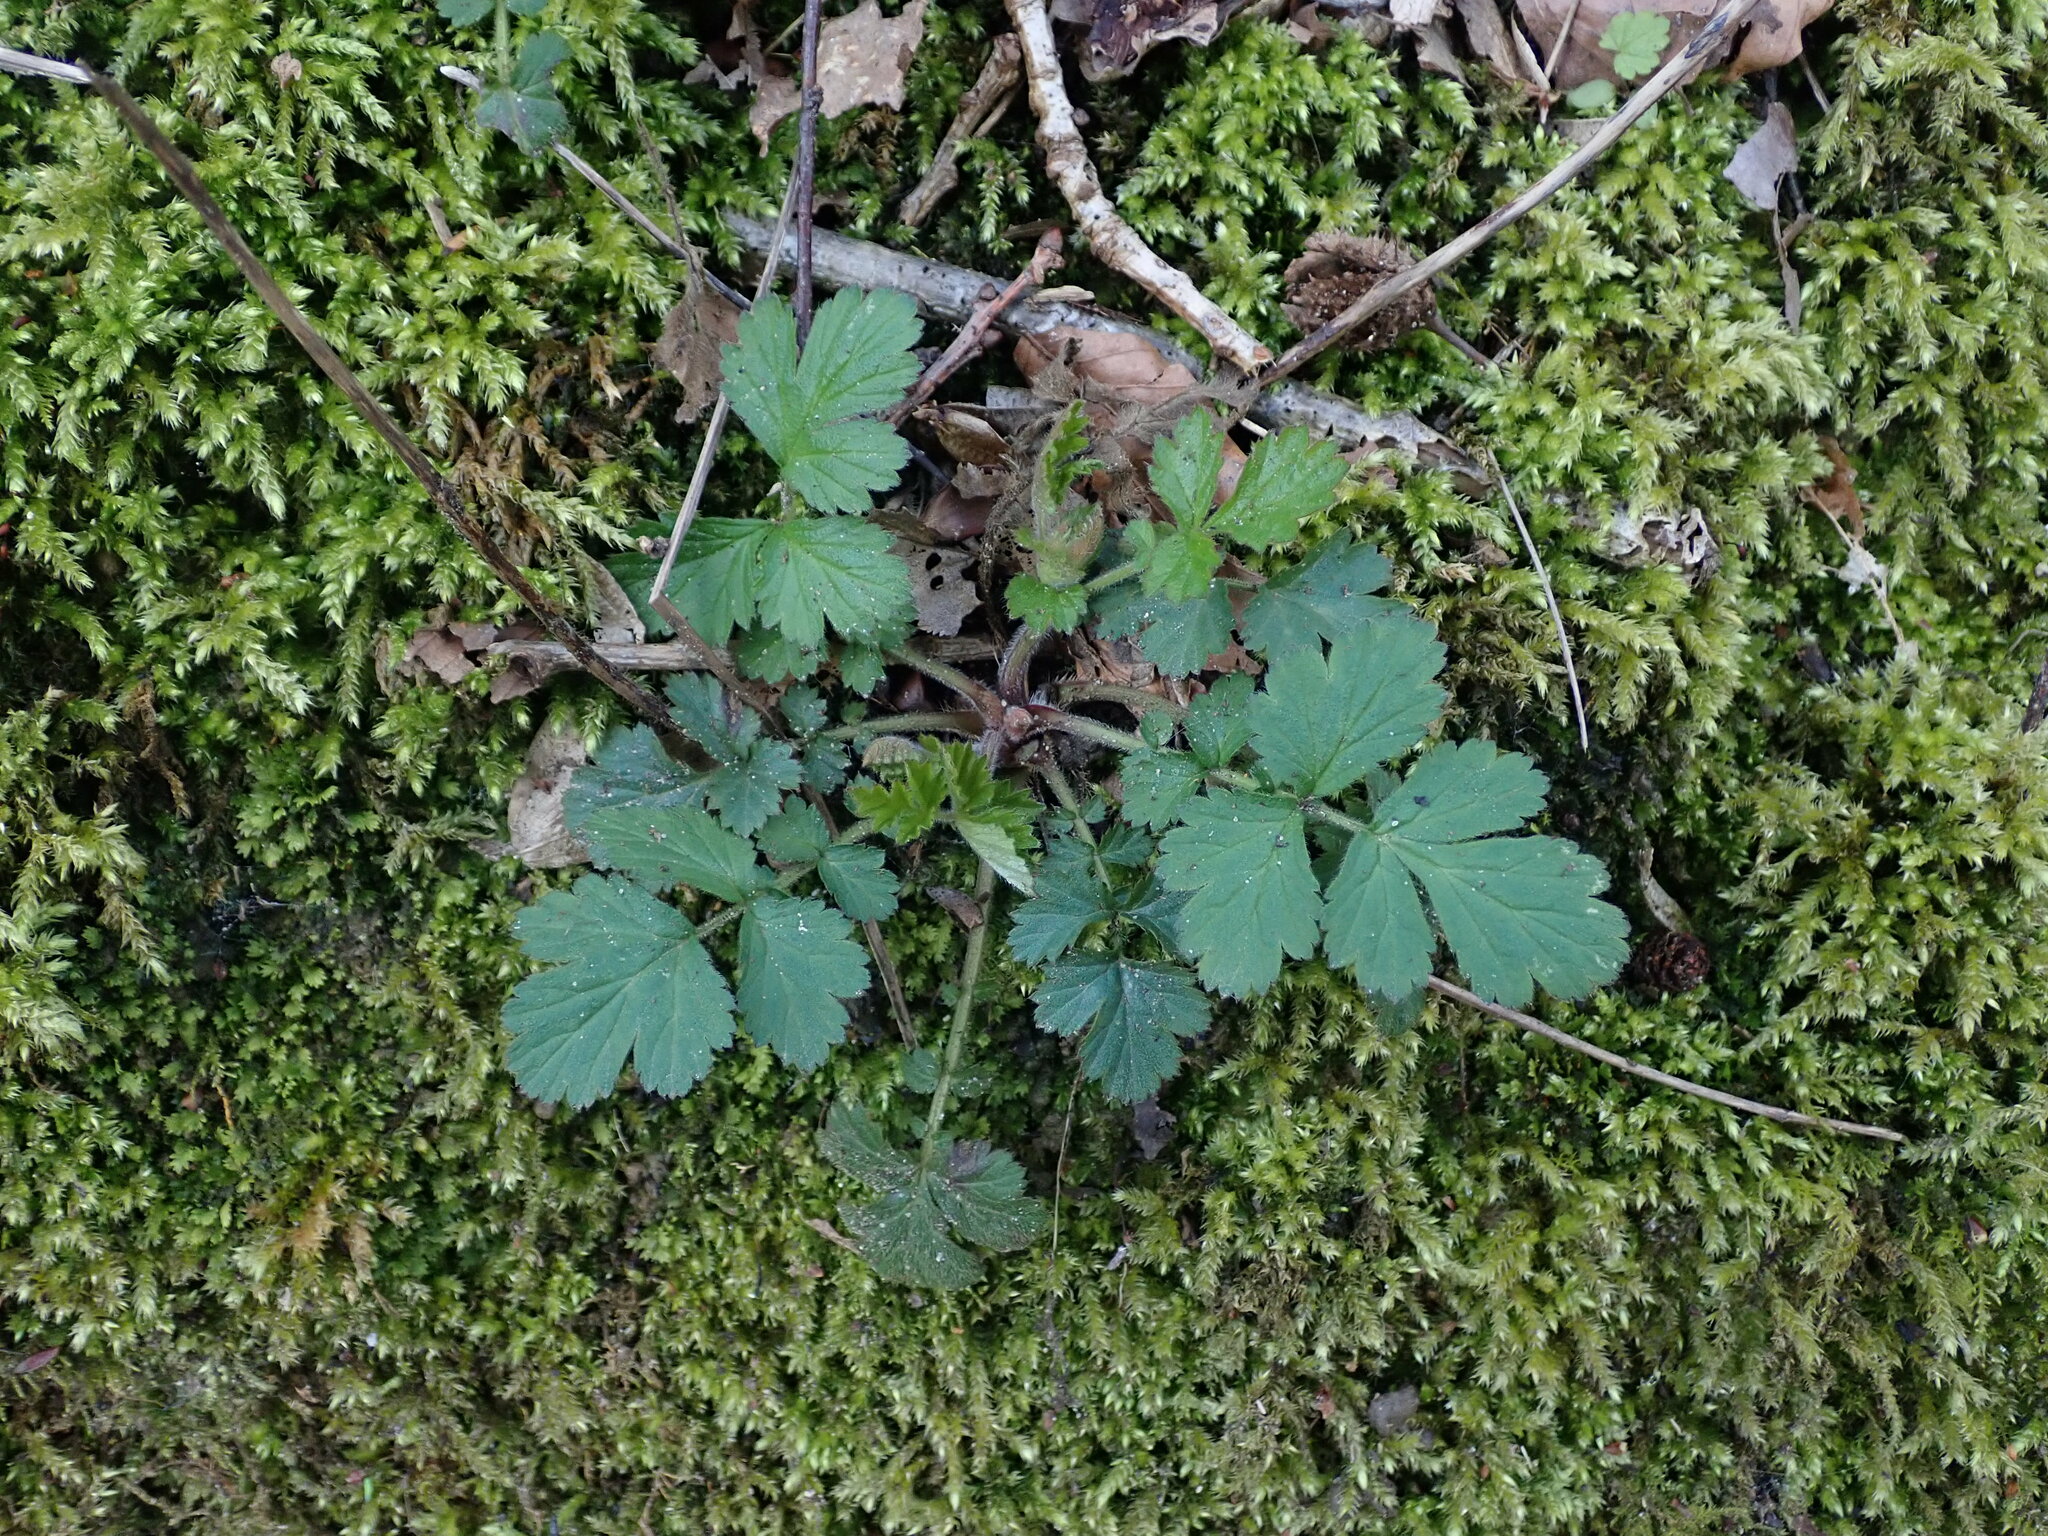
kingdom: Plantae
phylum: Tracheophyta
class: Magnoliopsida
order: Rosales
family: Rosaceae
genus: Geum
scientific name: Geum urbanum
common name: Wood avens
